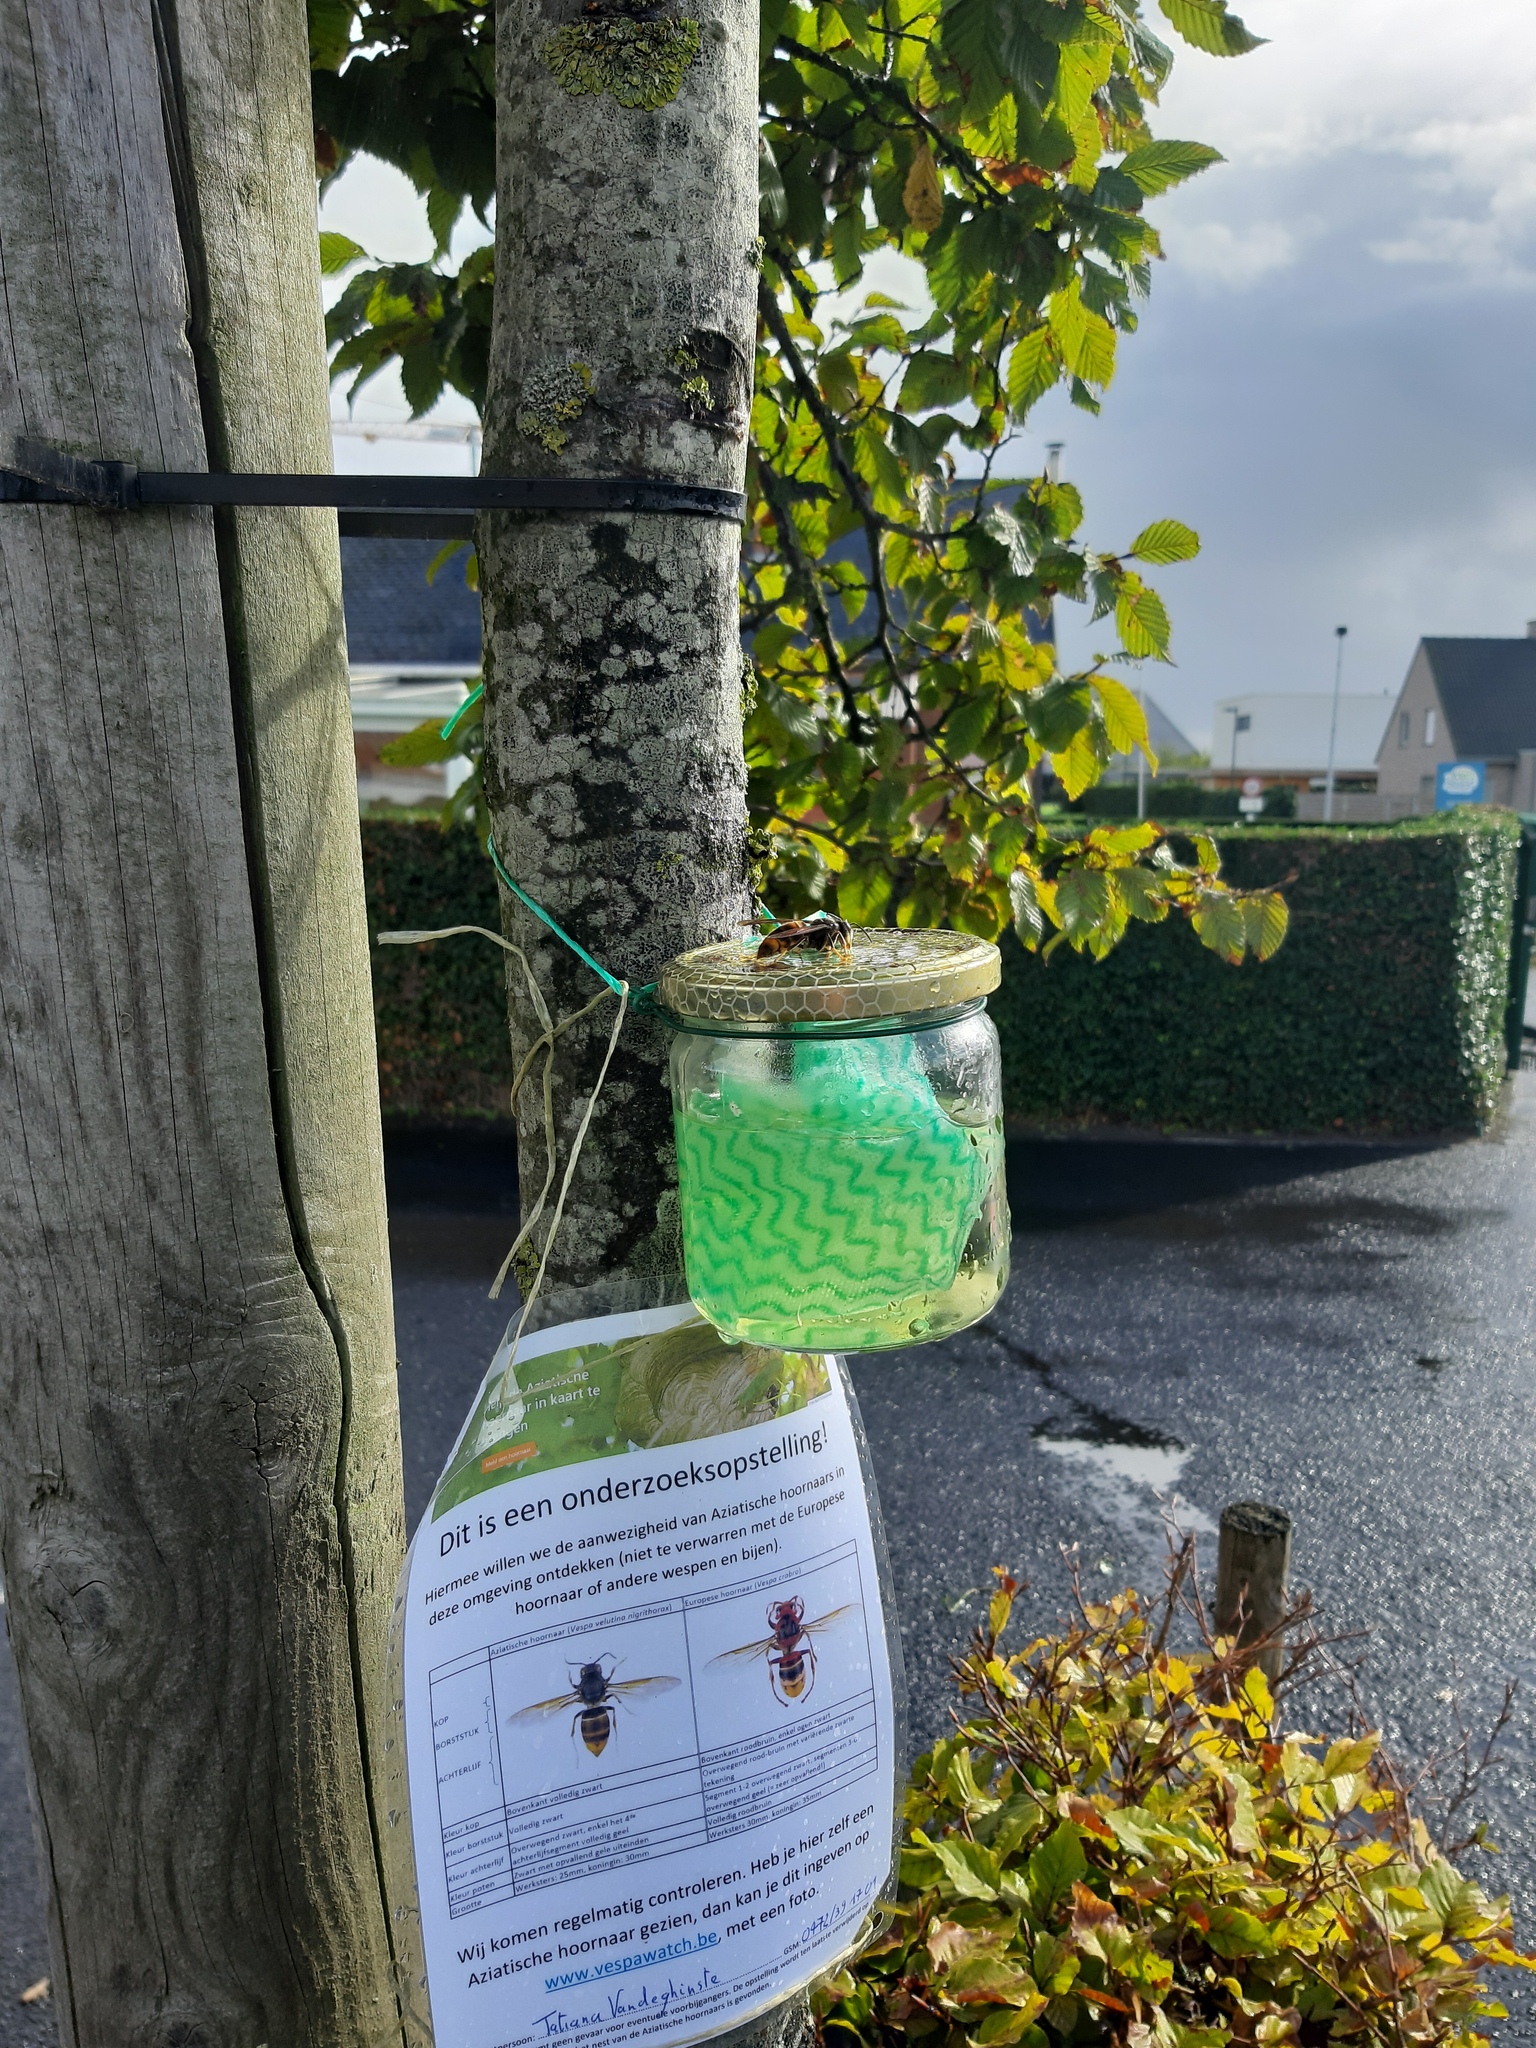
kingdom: Animalia
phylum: Arthropoda
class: Insecta
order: Hymenoptera
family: Vespidae
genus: Vespa
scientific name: Vespa velutina
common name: Asian hornet
